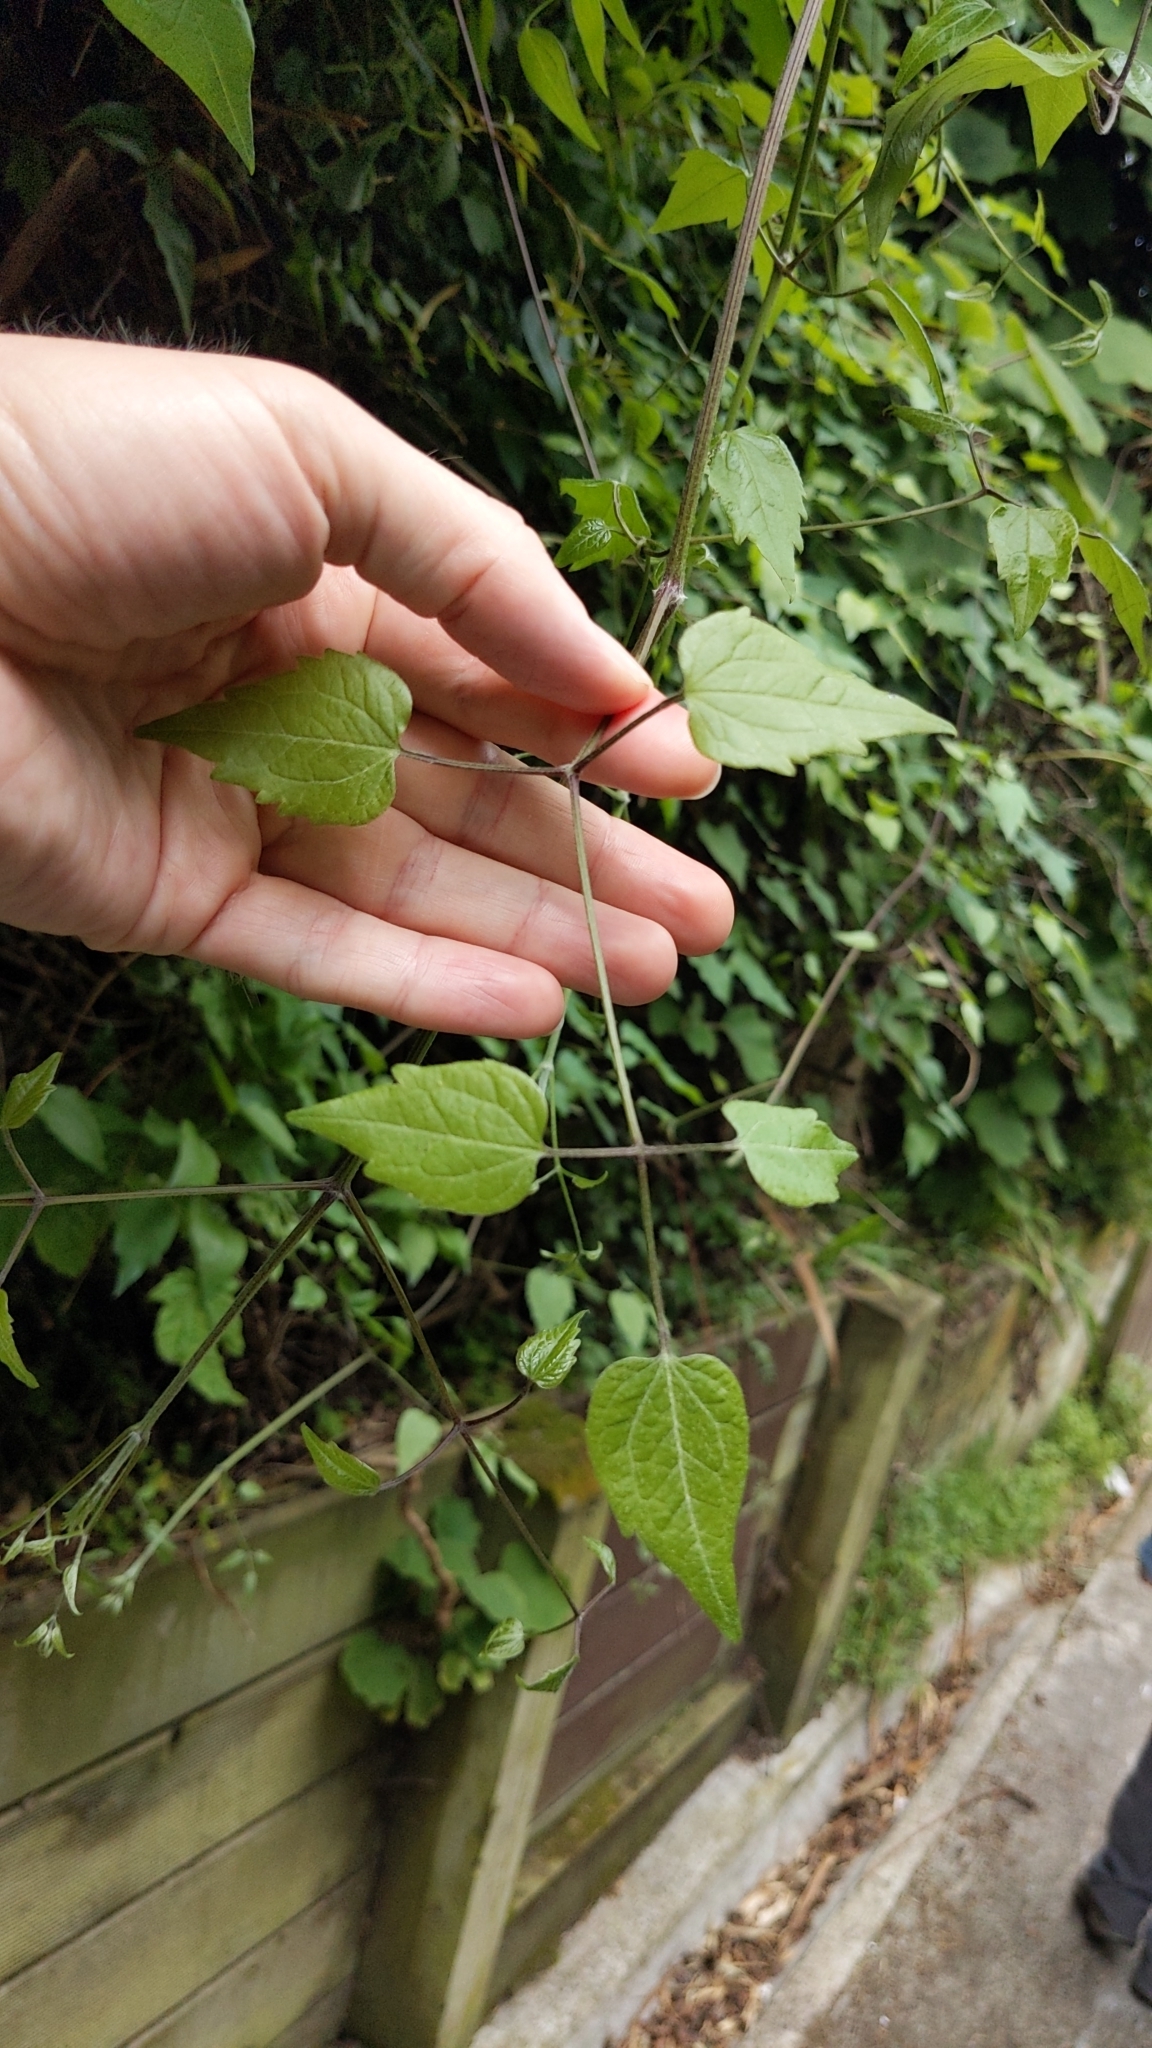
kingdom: Plantae
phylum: Tracheophyta
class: Magnoliopsida
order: Ranunculales
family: Ranunculaceae
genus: Clematis
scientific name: Clematis vitalba
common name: Evergreen clematis
